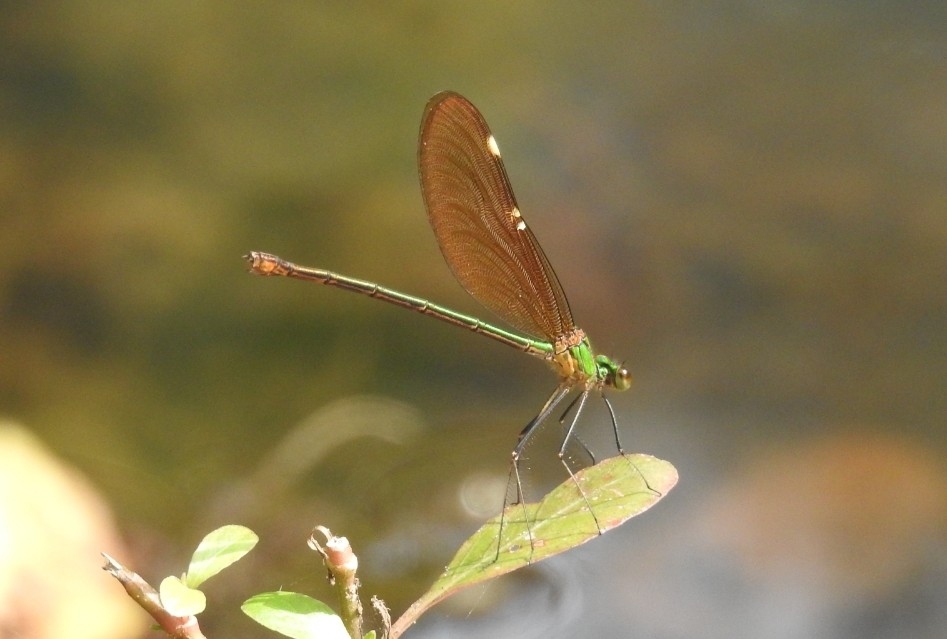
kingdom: Animalia
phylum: Arthropoda
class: Insecta
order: Odonata
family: Calopterygidae
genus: Neurobasis
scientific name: Neurobasis chinensis
